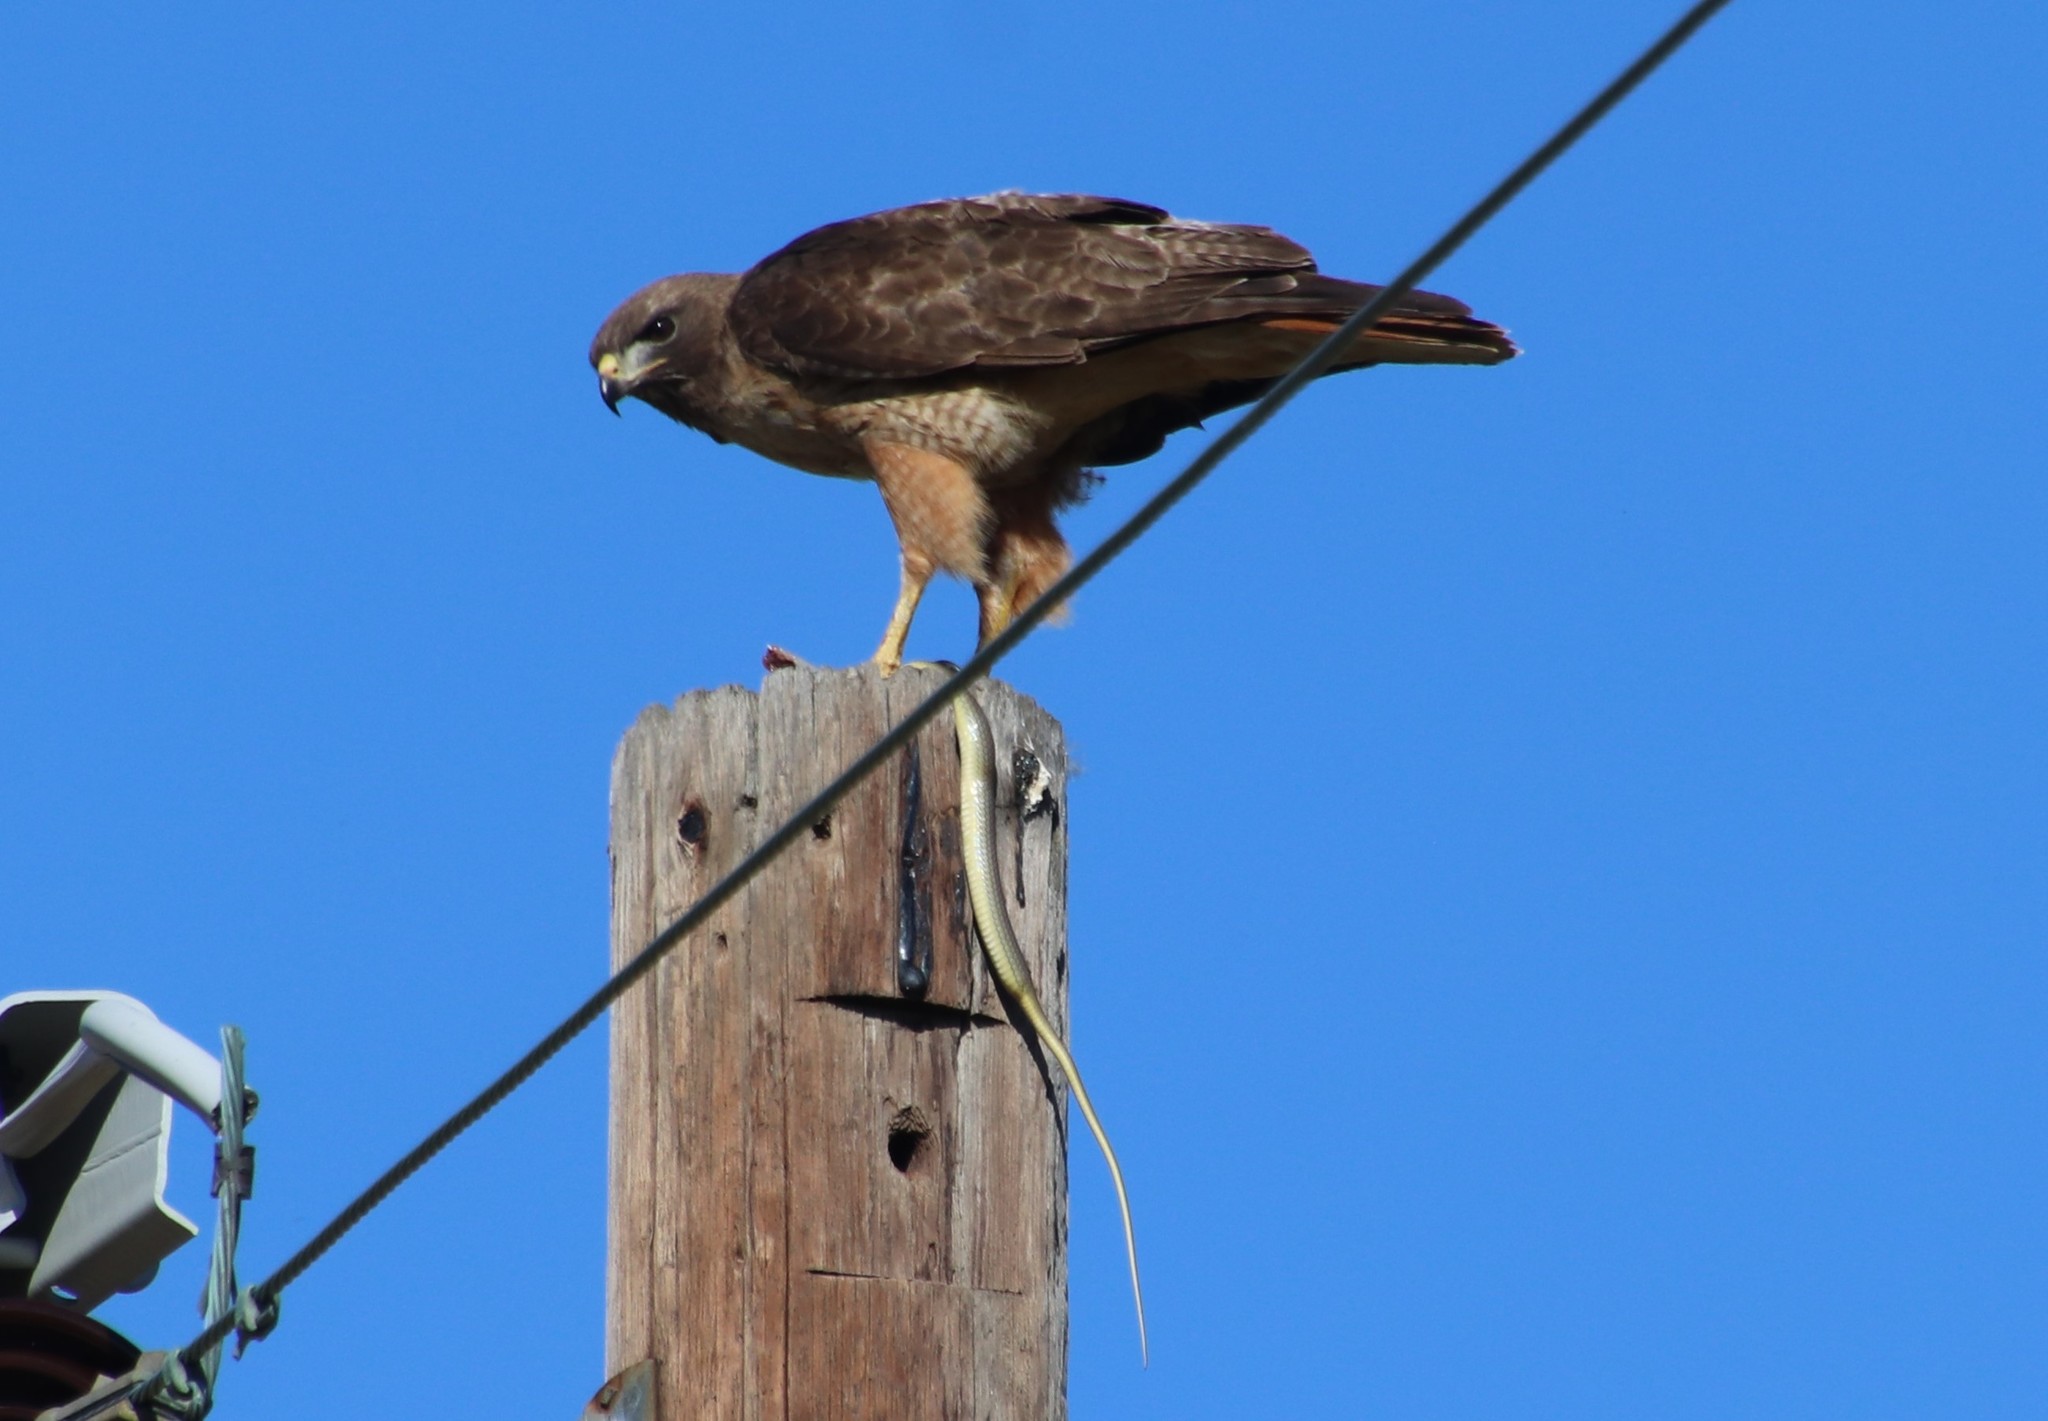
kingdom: Animalia
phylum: Chordata
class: Aves
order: Accipitriformes
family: Accipitridae
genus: Buteo
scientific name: Buteo jamaicensis
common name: Red-tailed hawk
